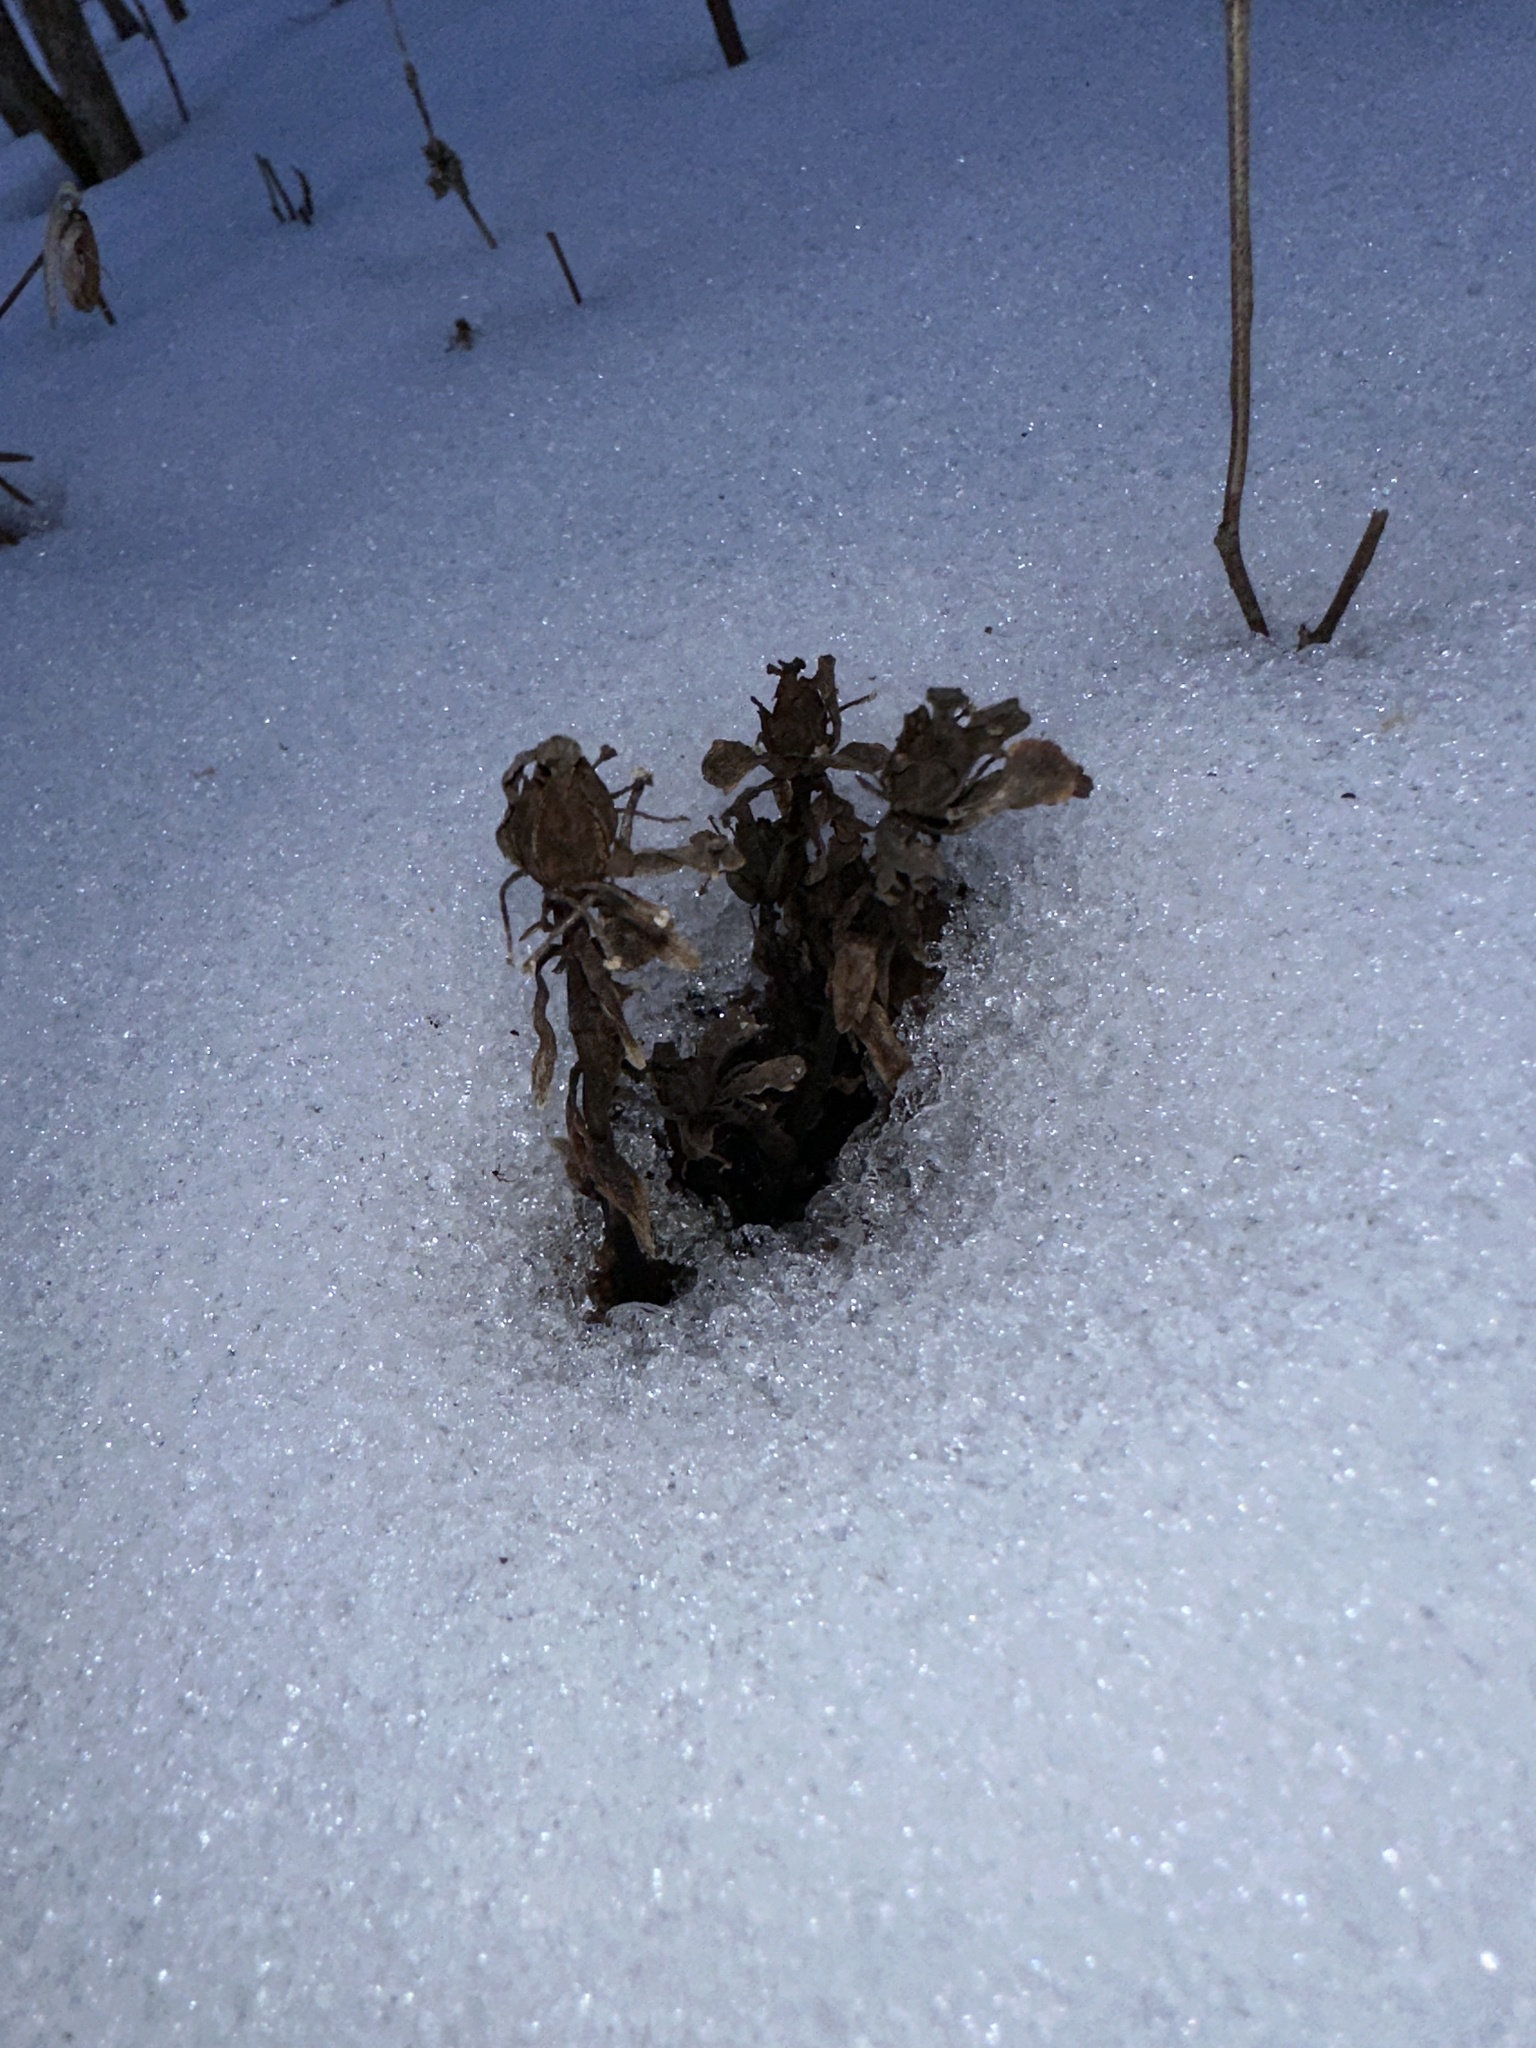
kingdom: Plantae
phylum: Tracheophyta
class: Magnoliopsida
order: Ericales
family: Ericaceae
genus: Monotropa
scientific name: Monotropa uniflora
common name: Convulsion root
